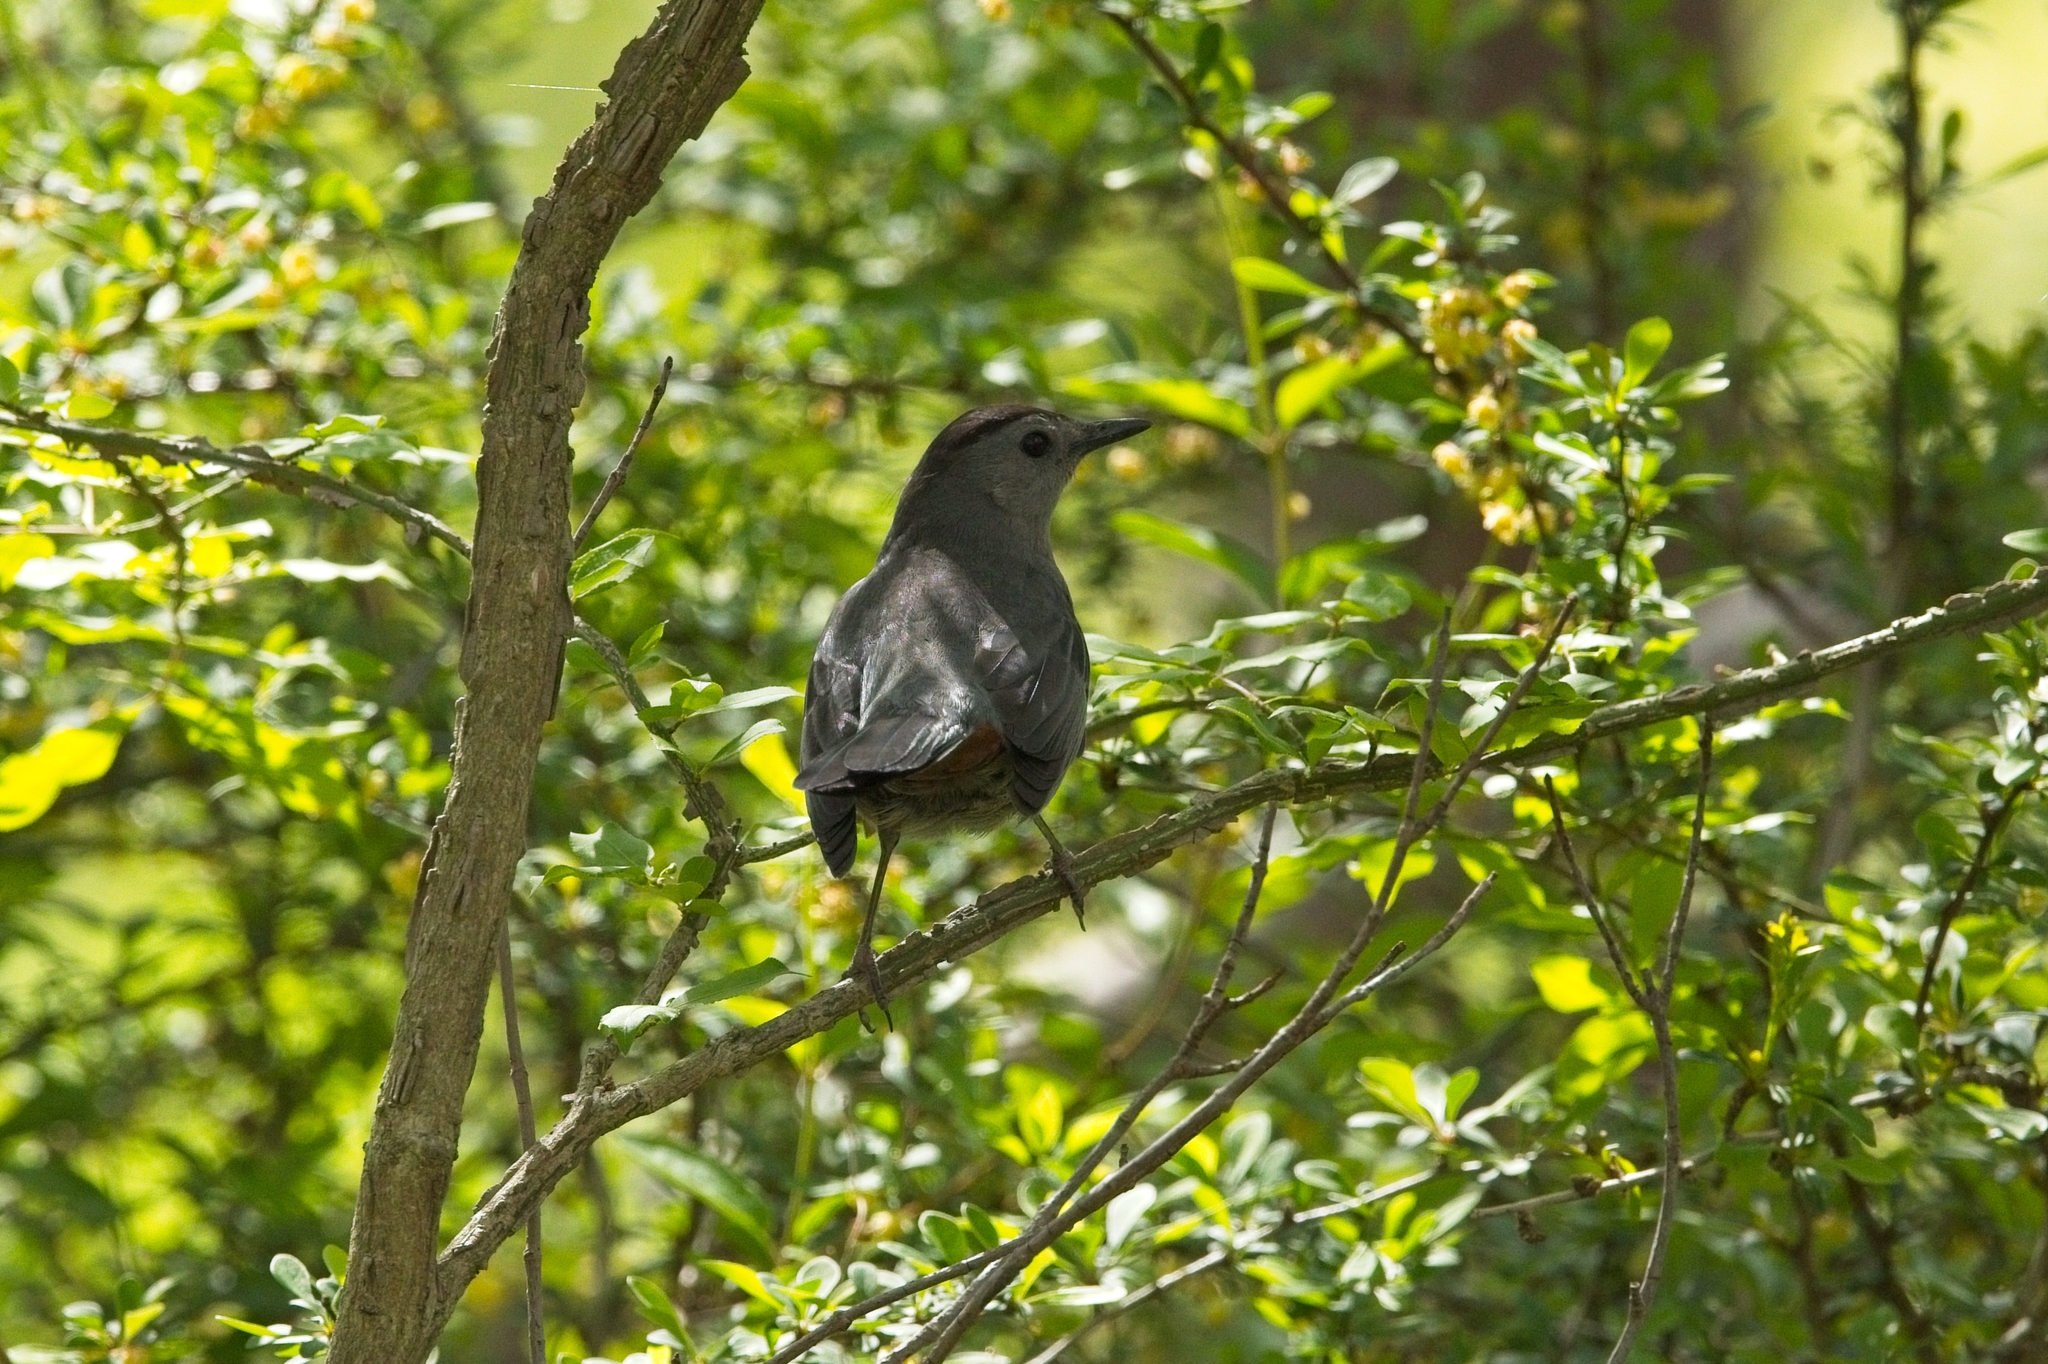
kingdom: Animalia
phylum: Chordata
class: Aves
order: Passeriformes
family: Mimidae
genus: Dumetella
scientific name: Dumetella carolinensis
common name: Gray catbird
